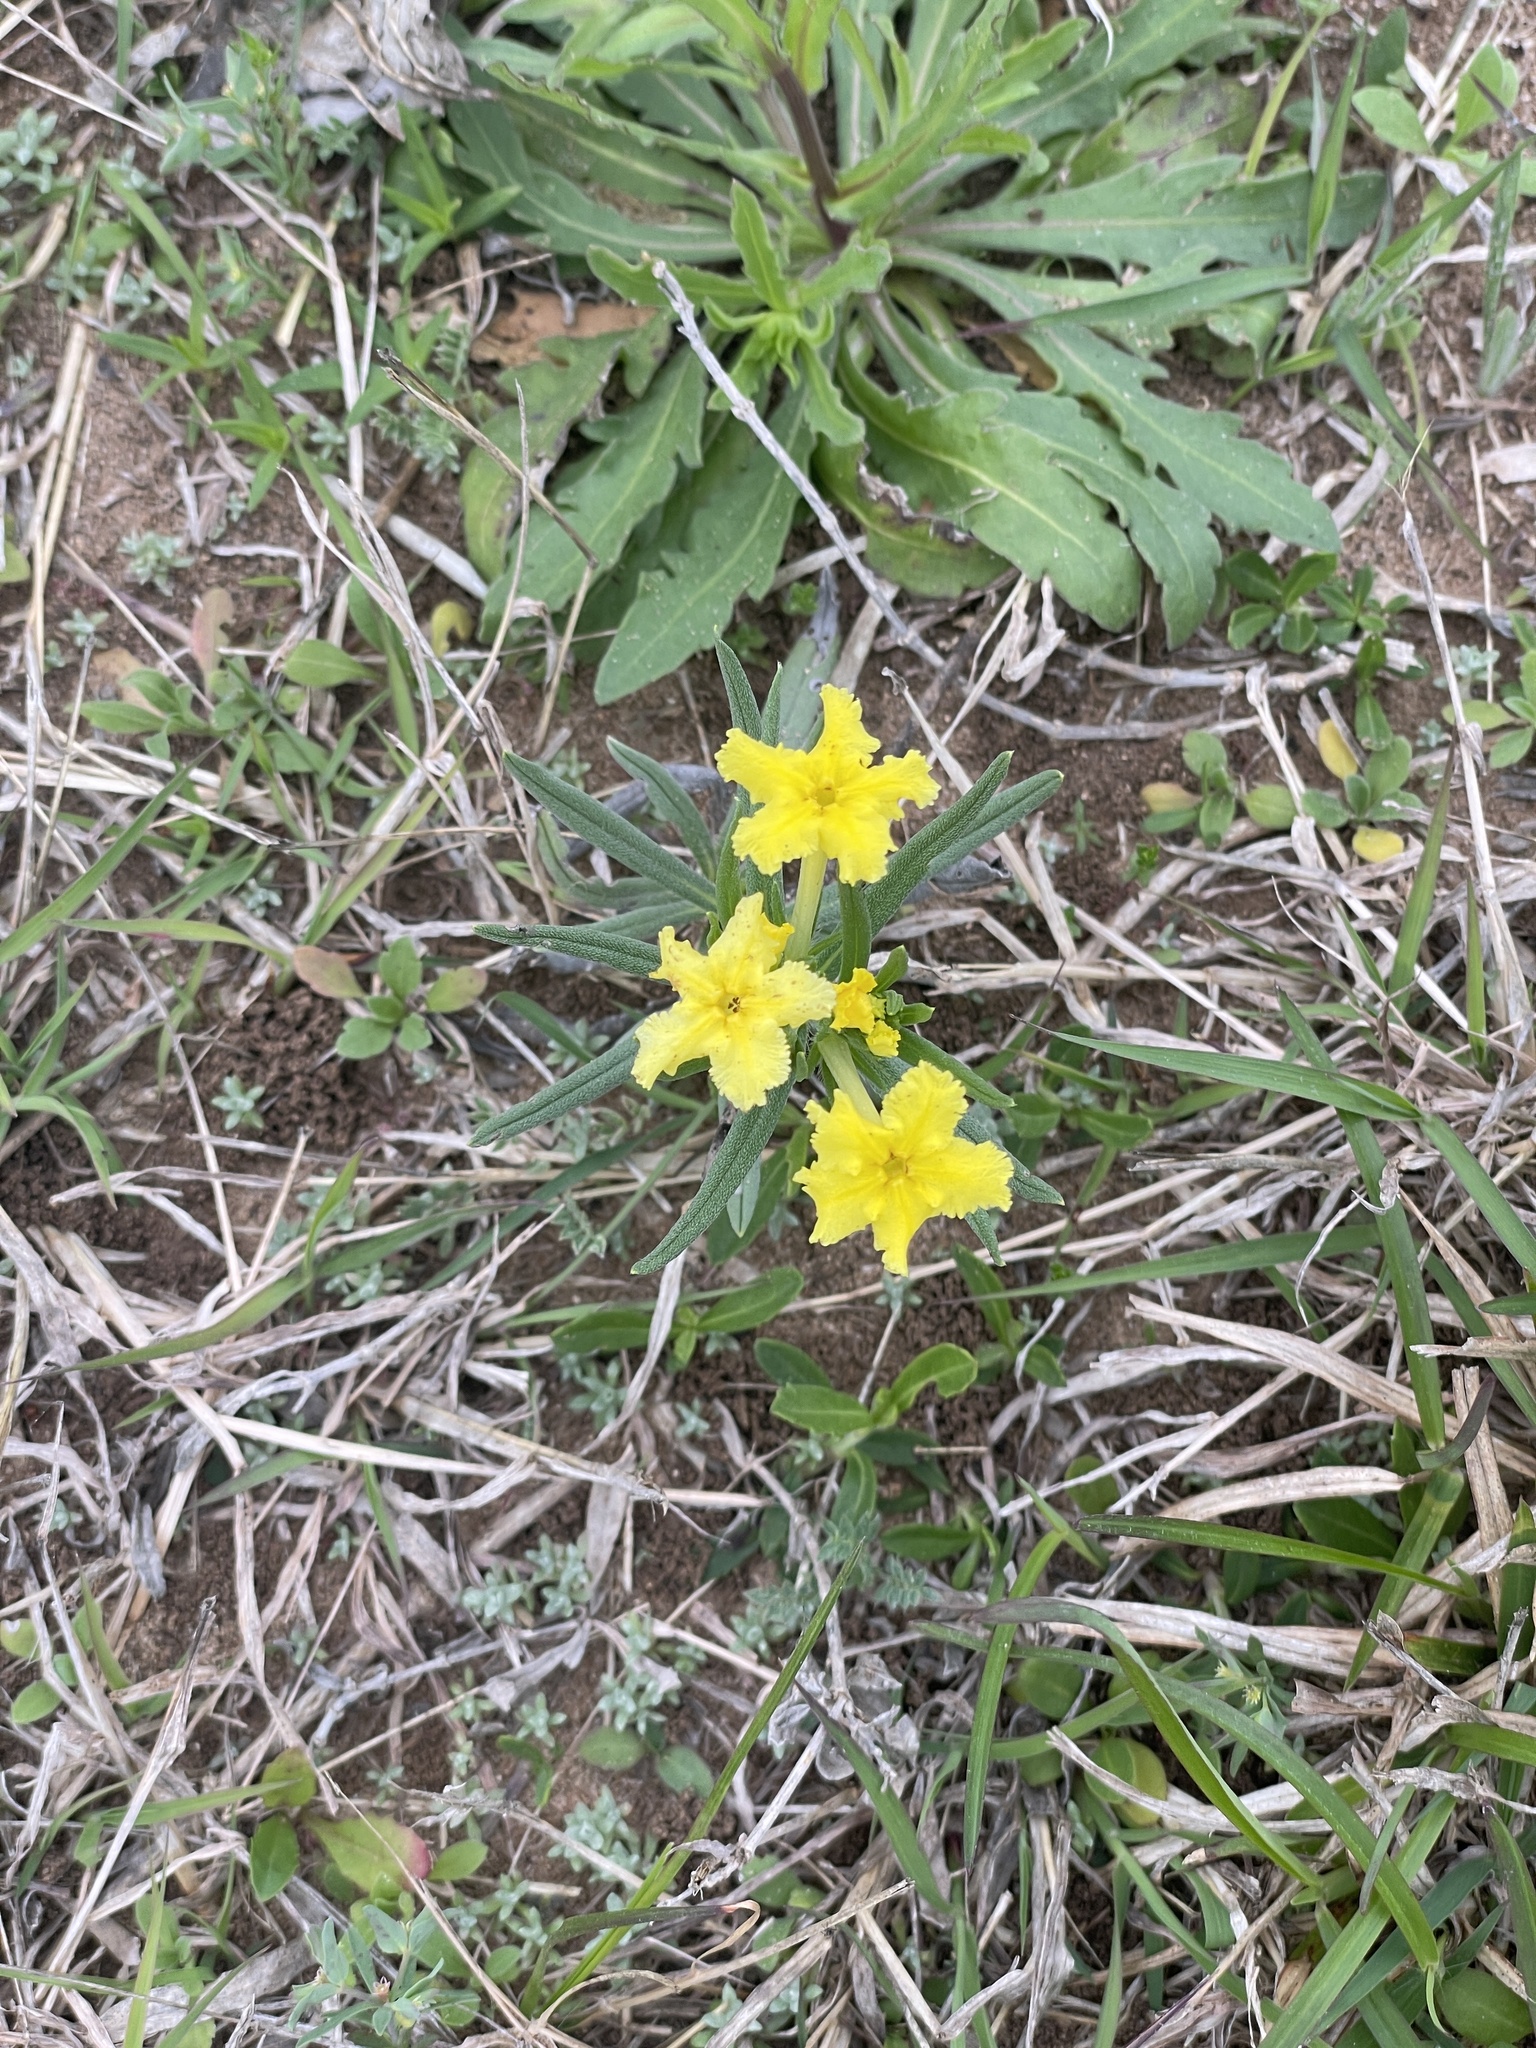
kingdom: Plantae
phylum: Tracheophyta
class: Magnoliopsida
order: Boraginales
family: Boraginaceae
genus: Lithospermum
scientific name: Lithospermum incisum
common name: Fringed gromwell
